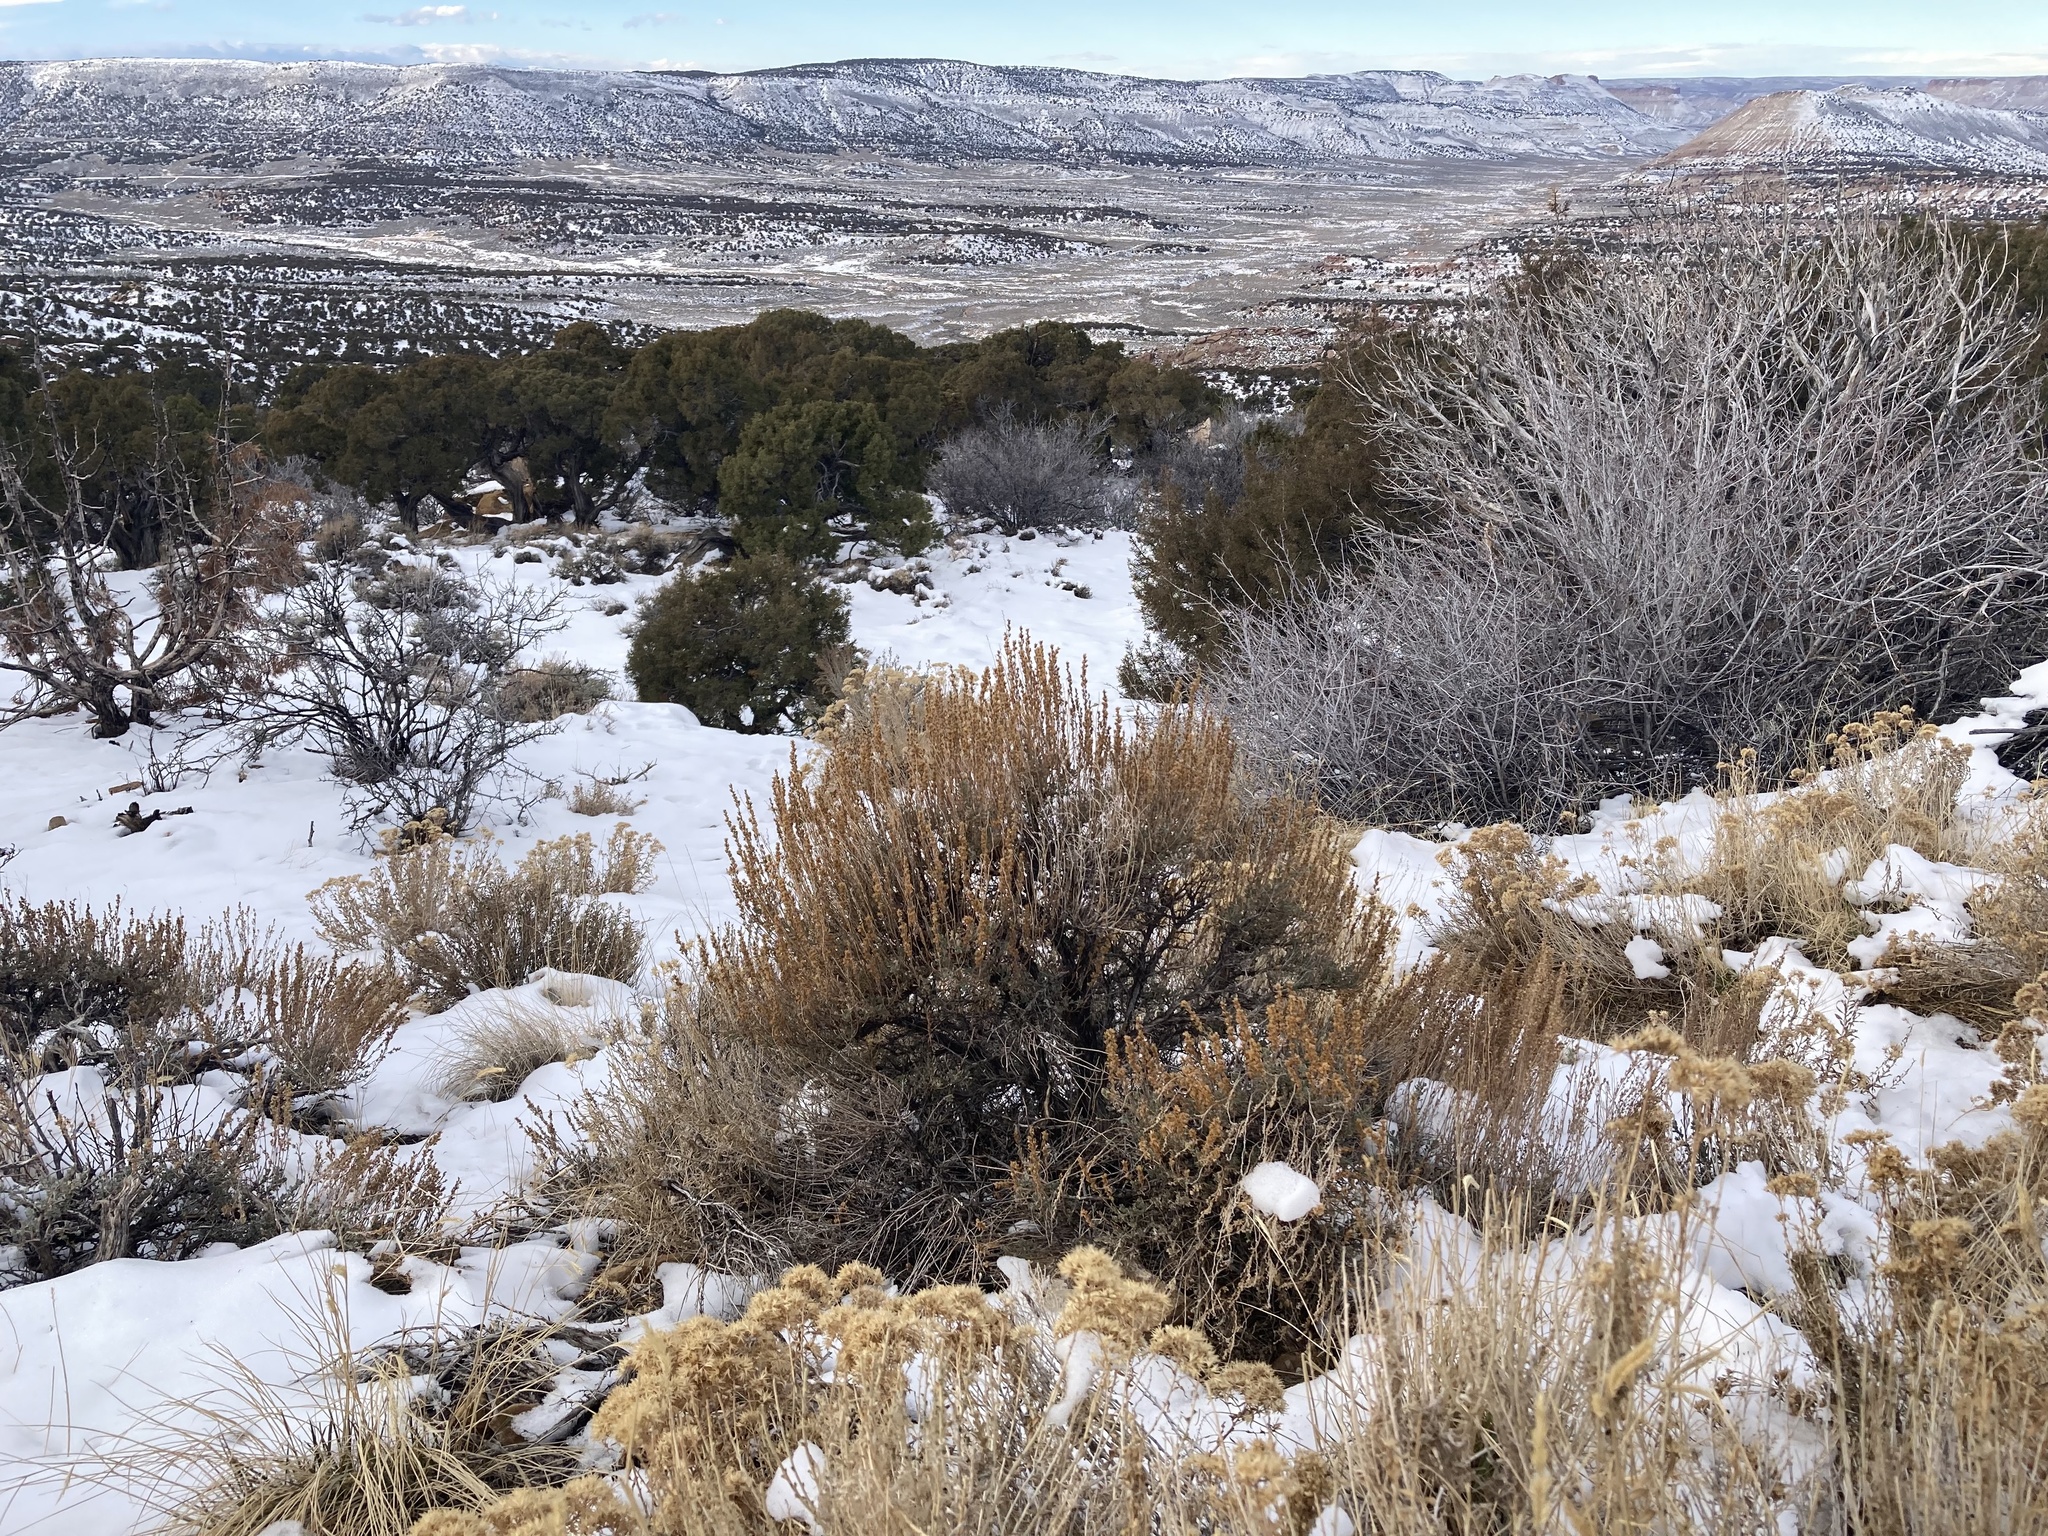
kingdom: Plantae
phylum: Tracheophyta
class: Magnoliopsida
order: Asterales
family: Asteraceae
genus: Artemisia
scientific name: Artemisia tridentata
